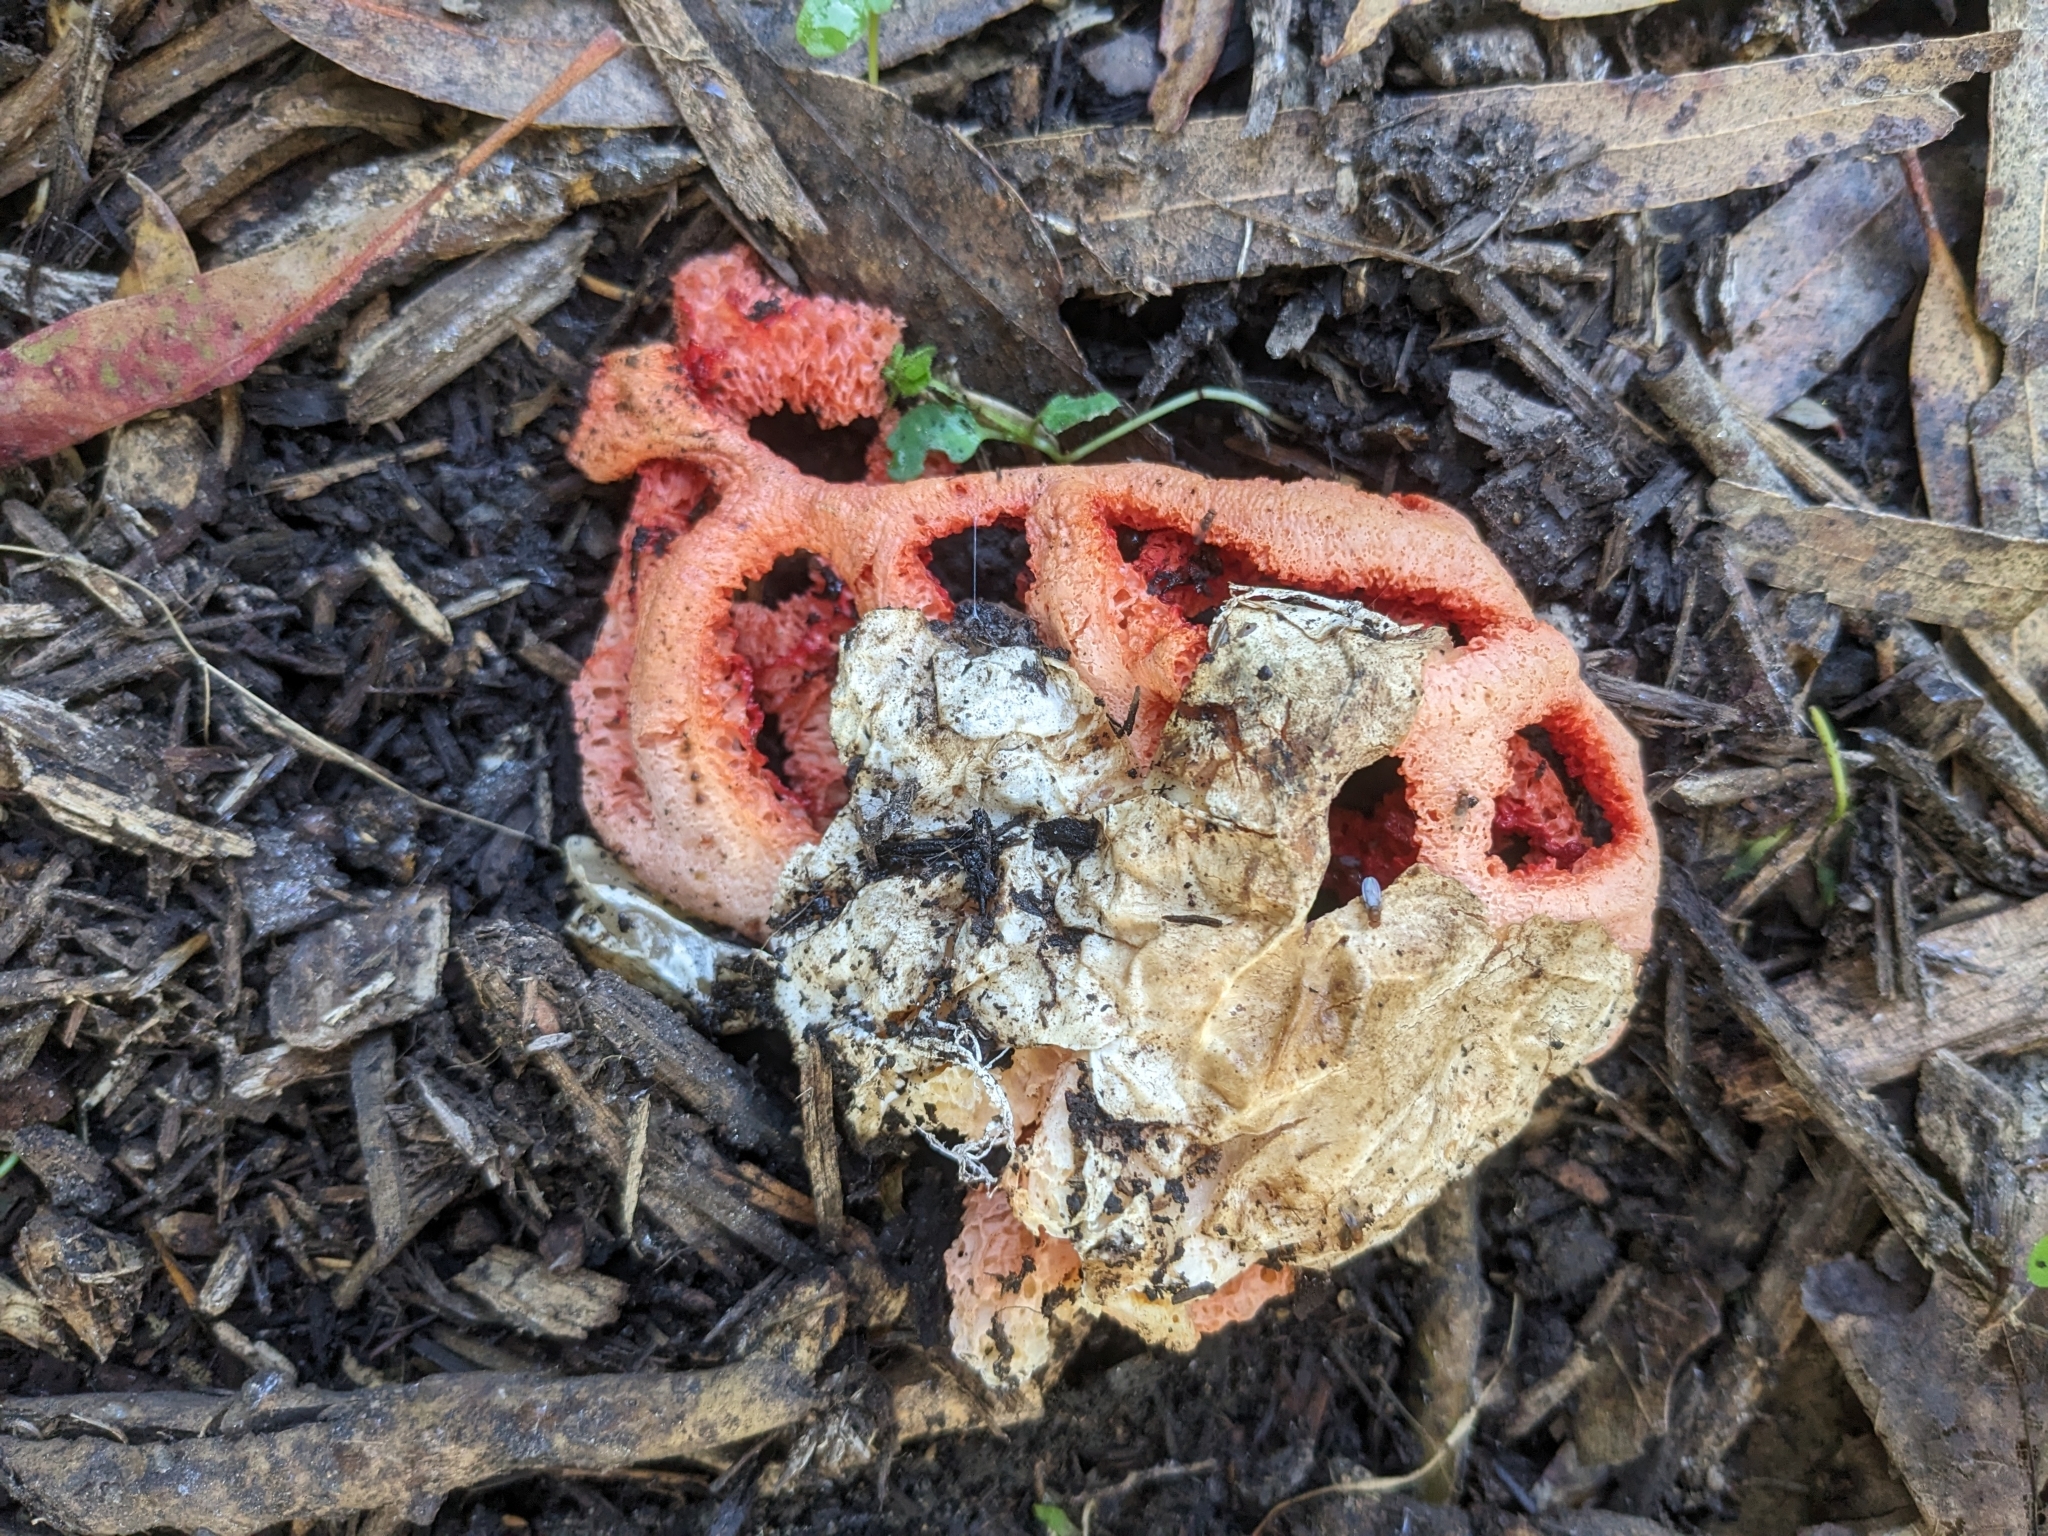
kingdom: Fungi
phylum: Basidiomycota
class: Agaricomycetes
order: Phallales
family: Phallaceae
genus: Clathrus
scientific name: Clathrus ruber
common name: Red cage
